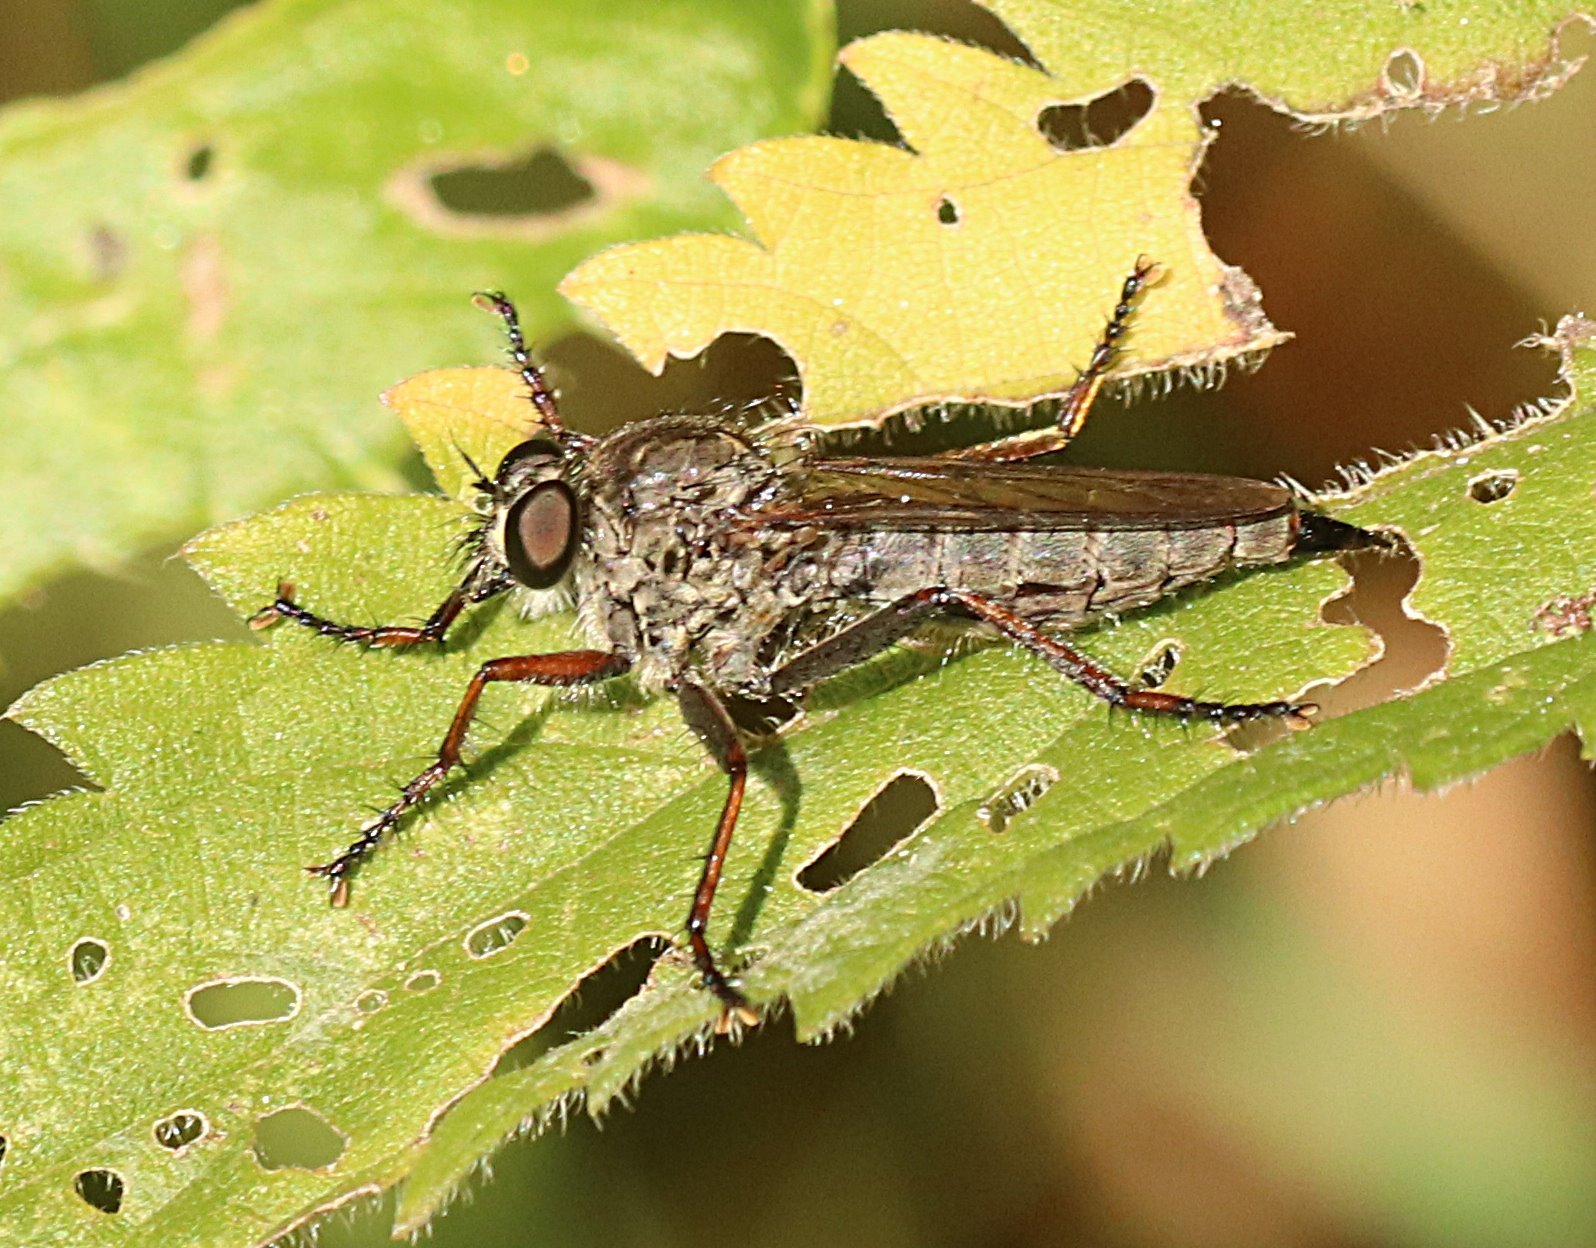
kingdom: Animalia
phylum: Arthropoda
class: Insecta
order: Diptera
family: Asilidae
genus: Machimus
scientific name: Machimus atricapillus
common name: Kite-tailed robberfly
